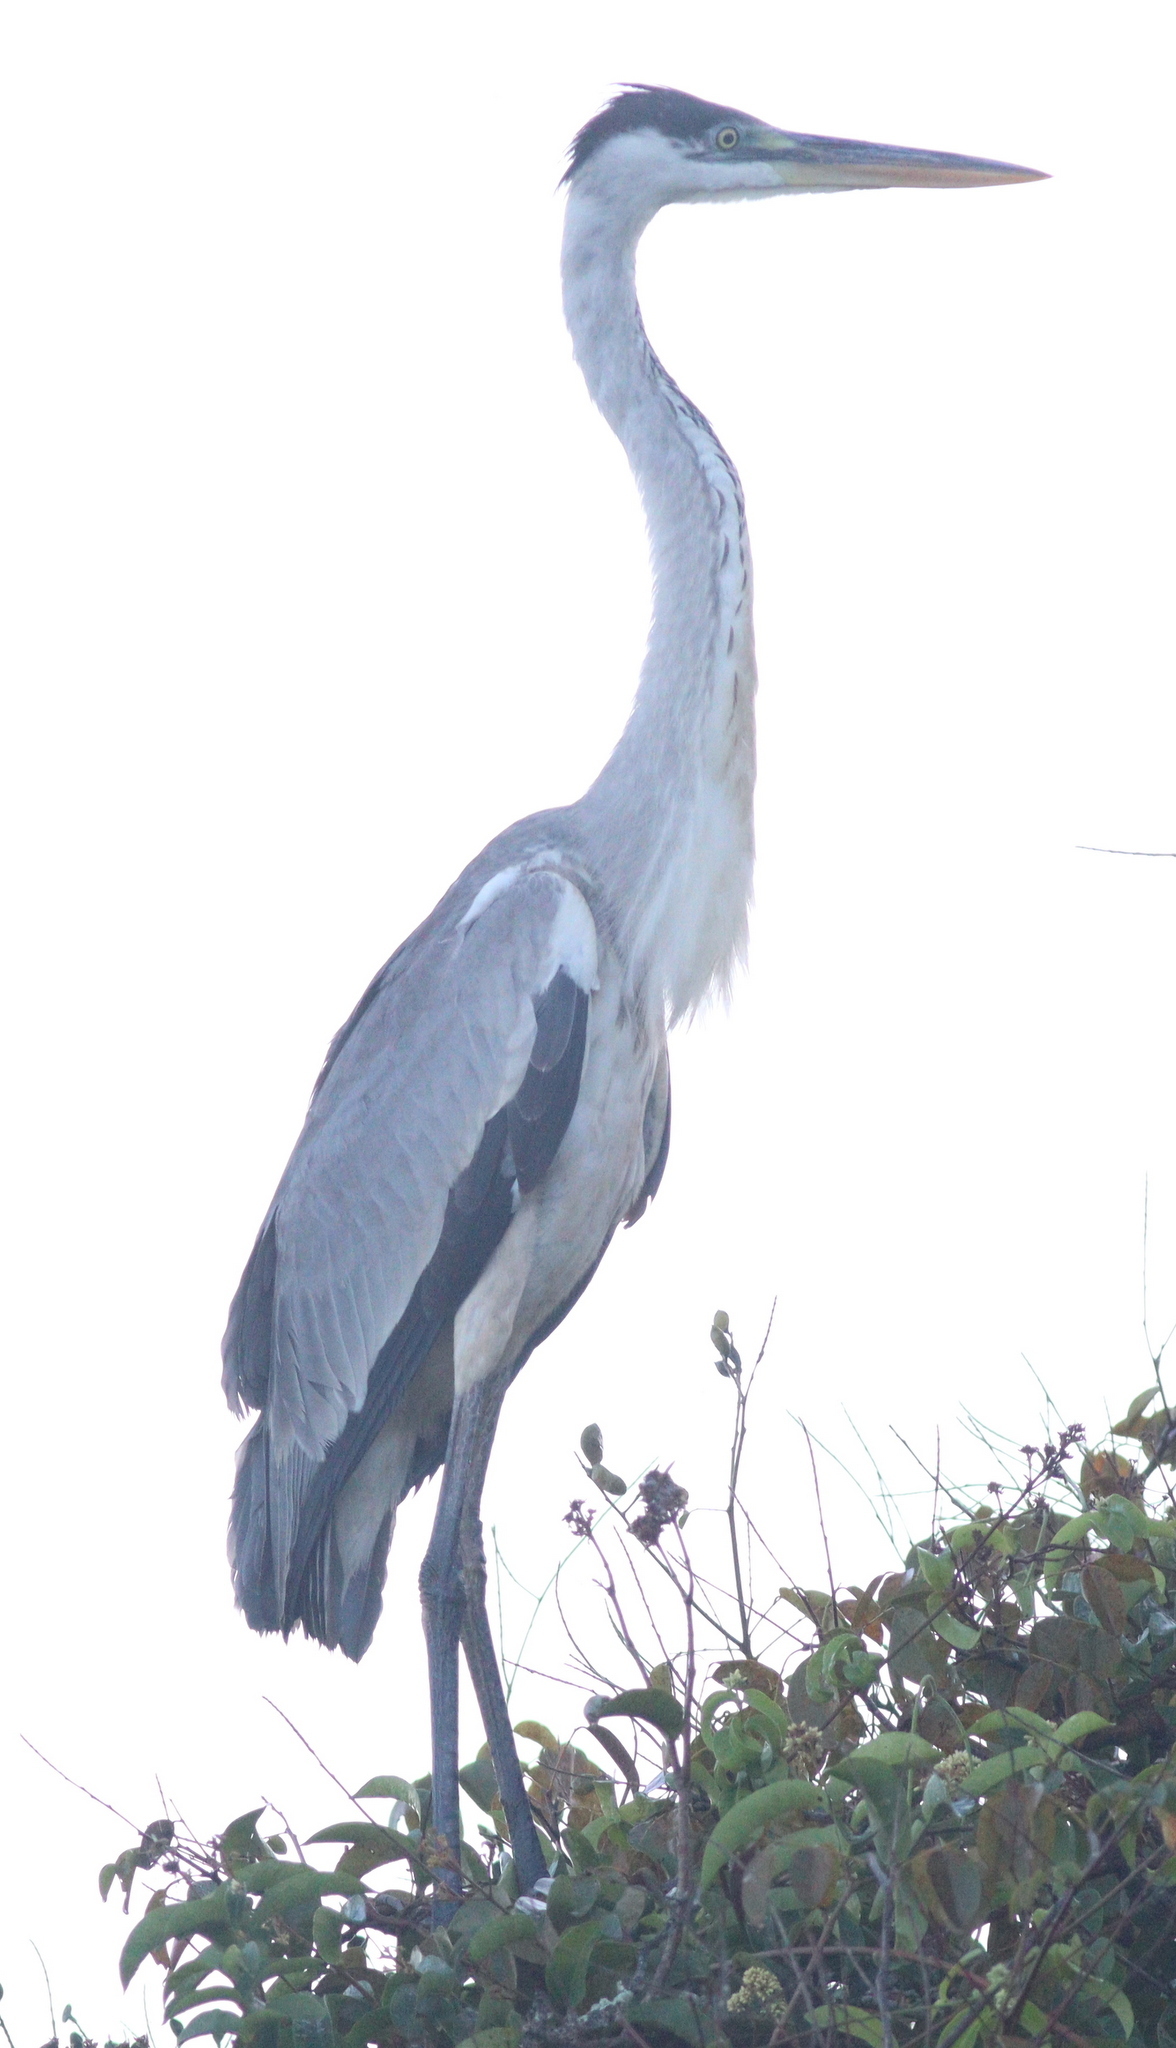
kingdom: Animalia
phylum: Chordata
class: Aves
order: Pelecaniformes
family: Ardeidae
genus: Ardea
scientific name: Ardea cocoi
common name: Cocoi heron
